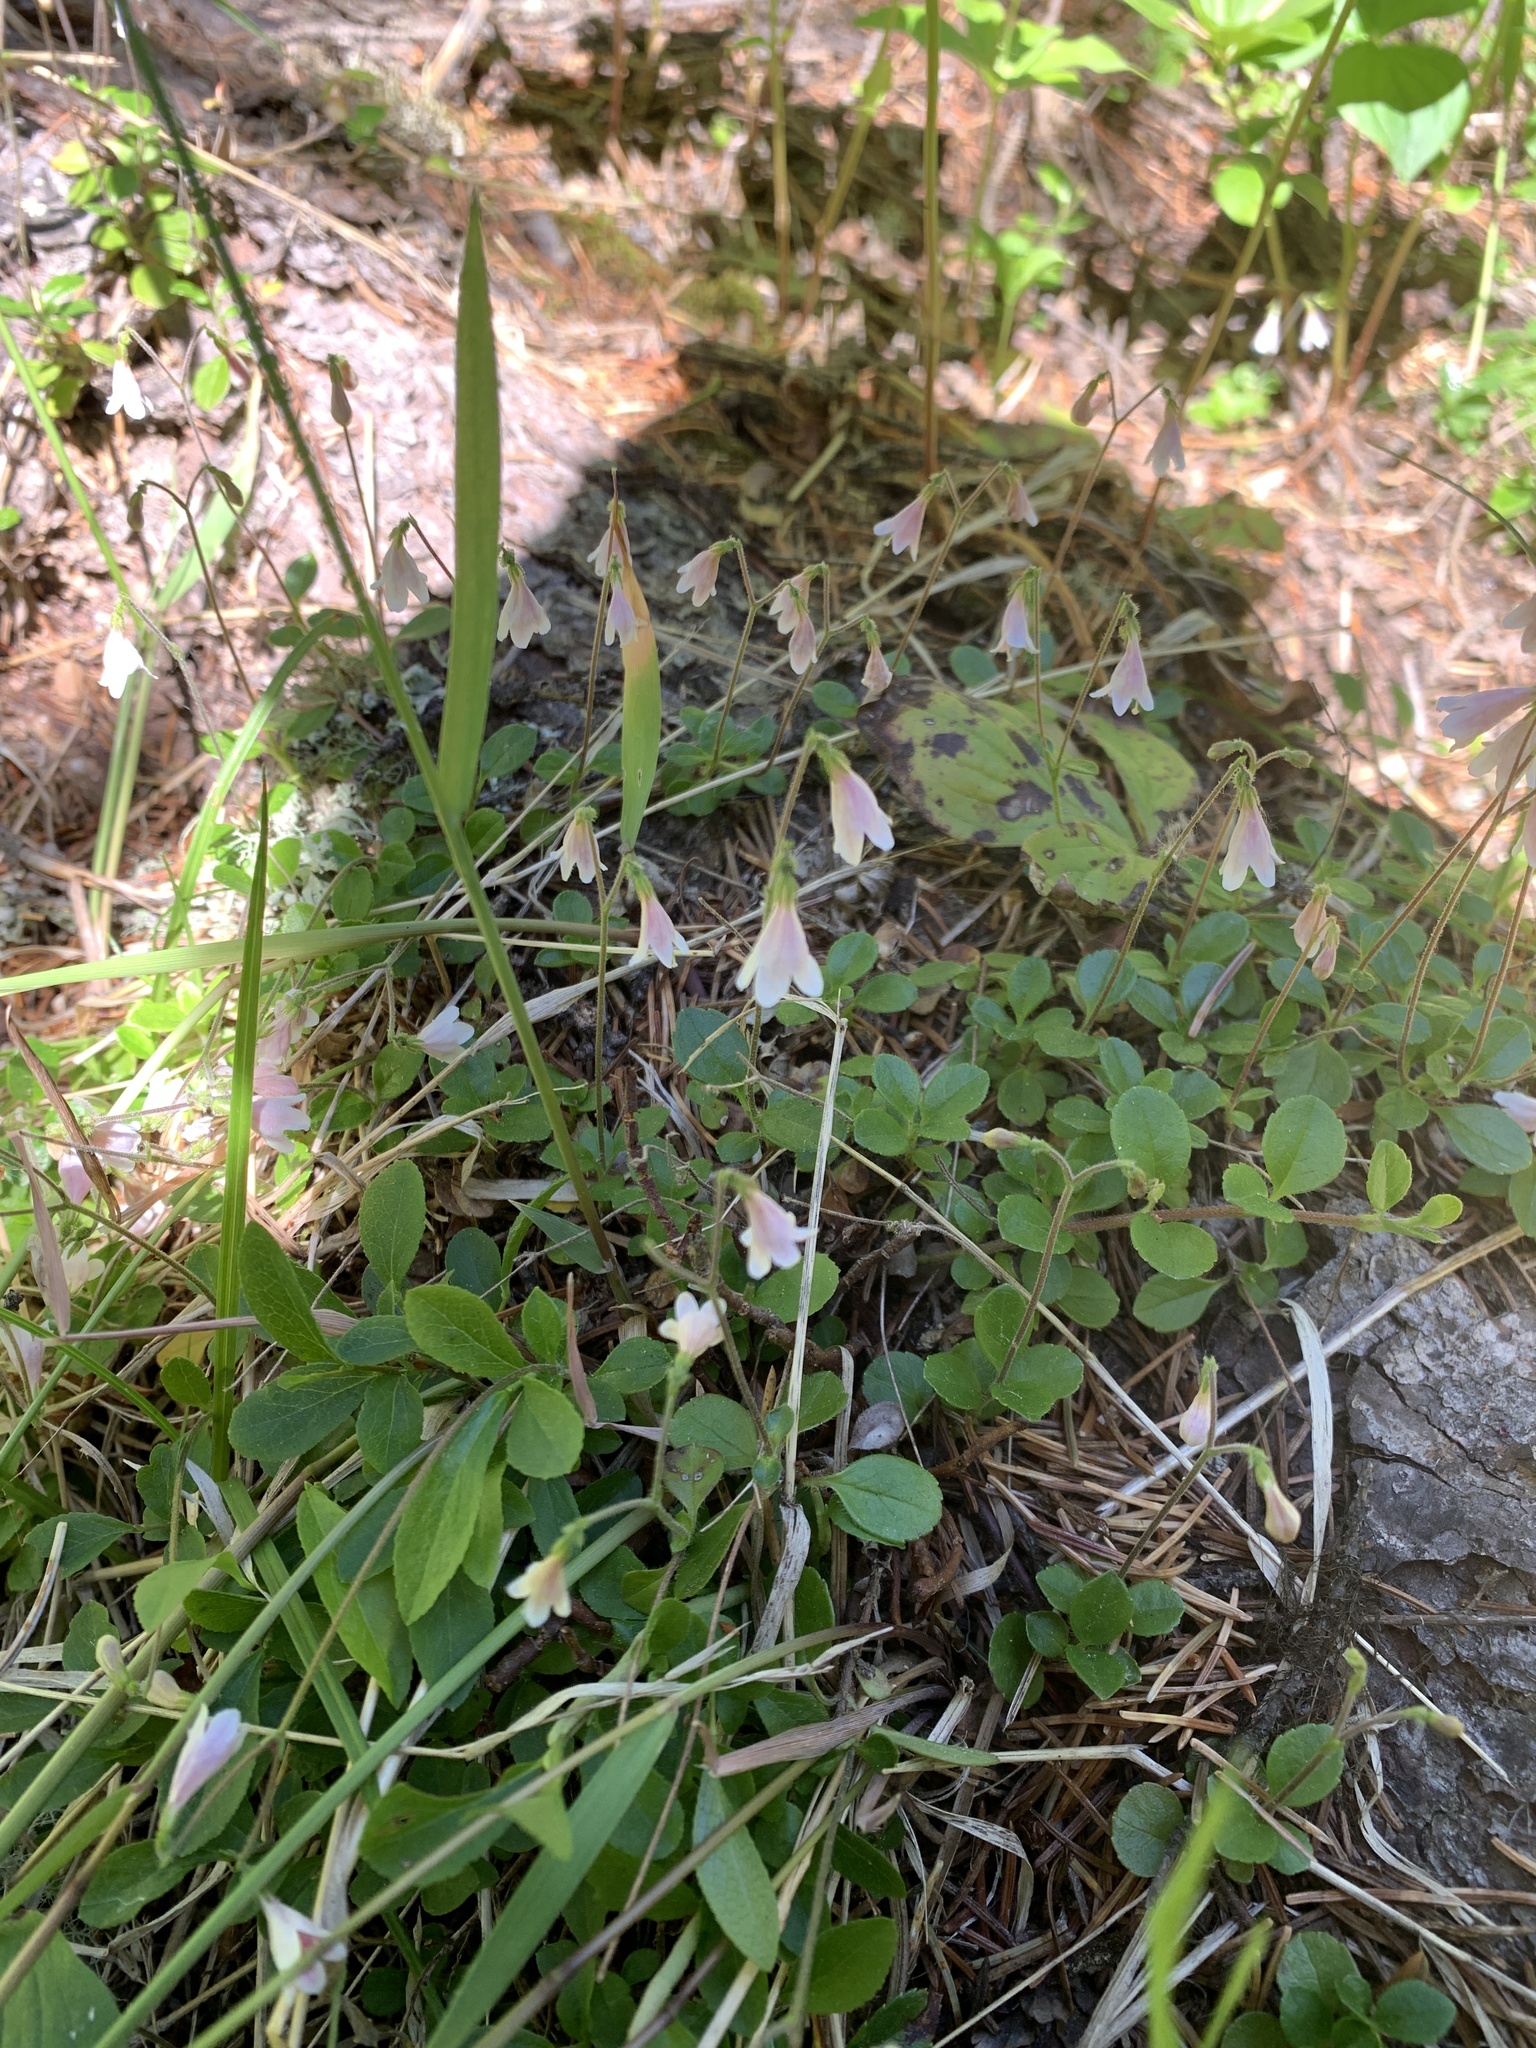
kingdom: Plantae
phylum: Tracheophyta
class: Magnoliopsida
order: Dipsacales
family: Caprifoliaceae
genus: Linnaea
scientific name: Linnaea borealis
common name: Twinflower
